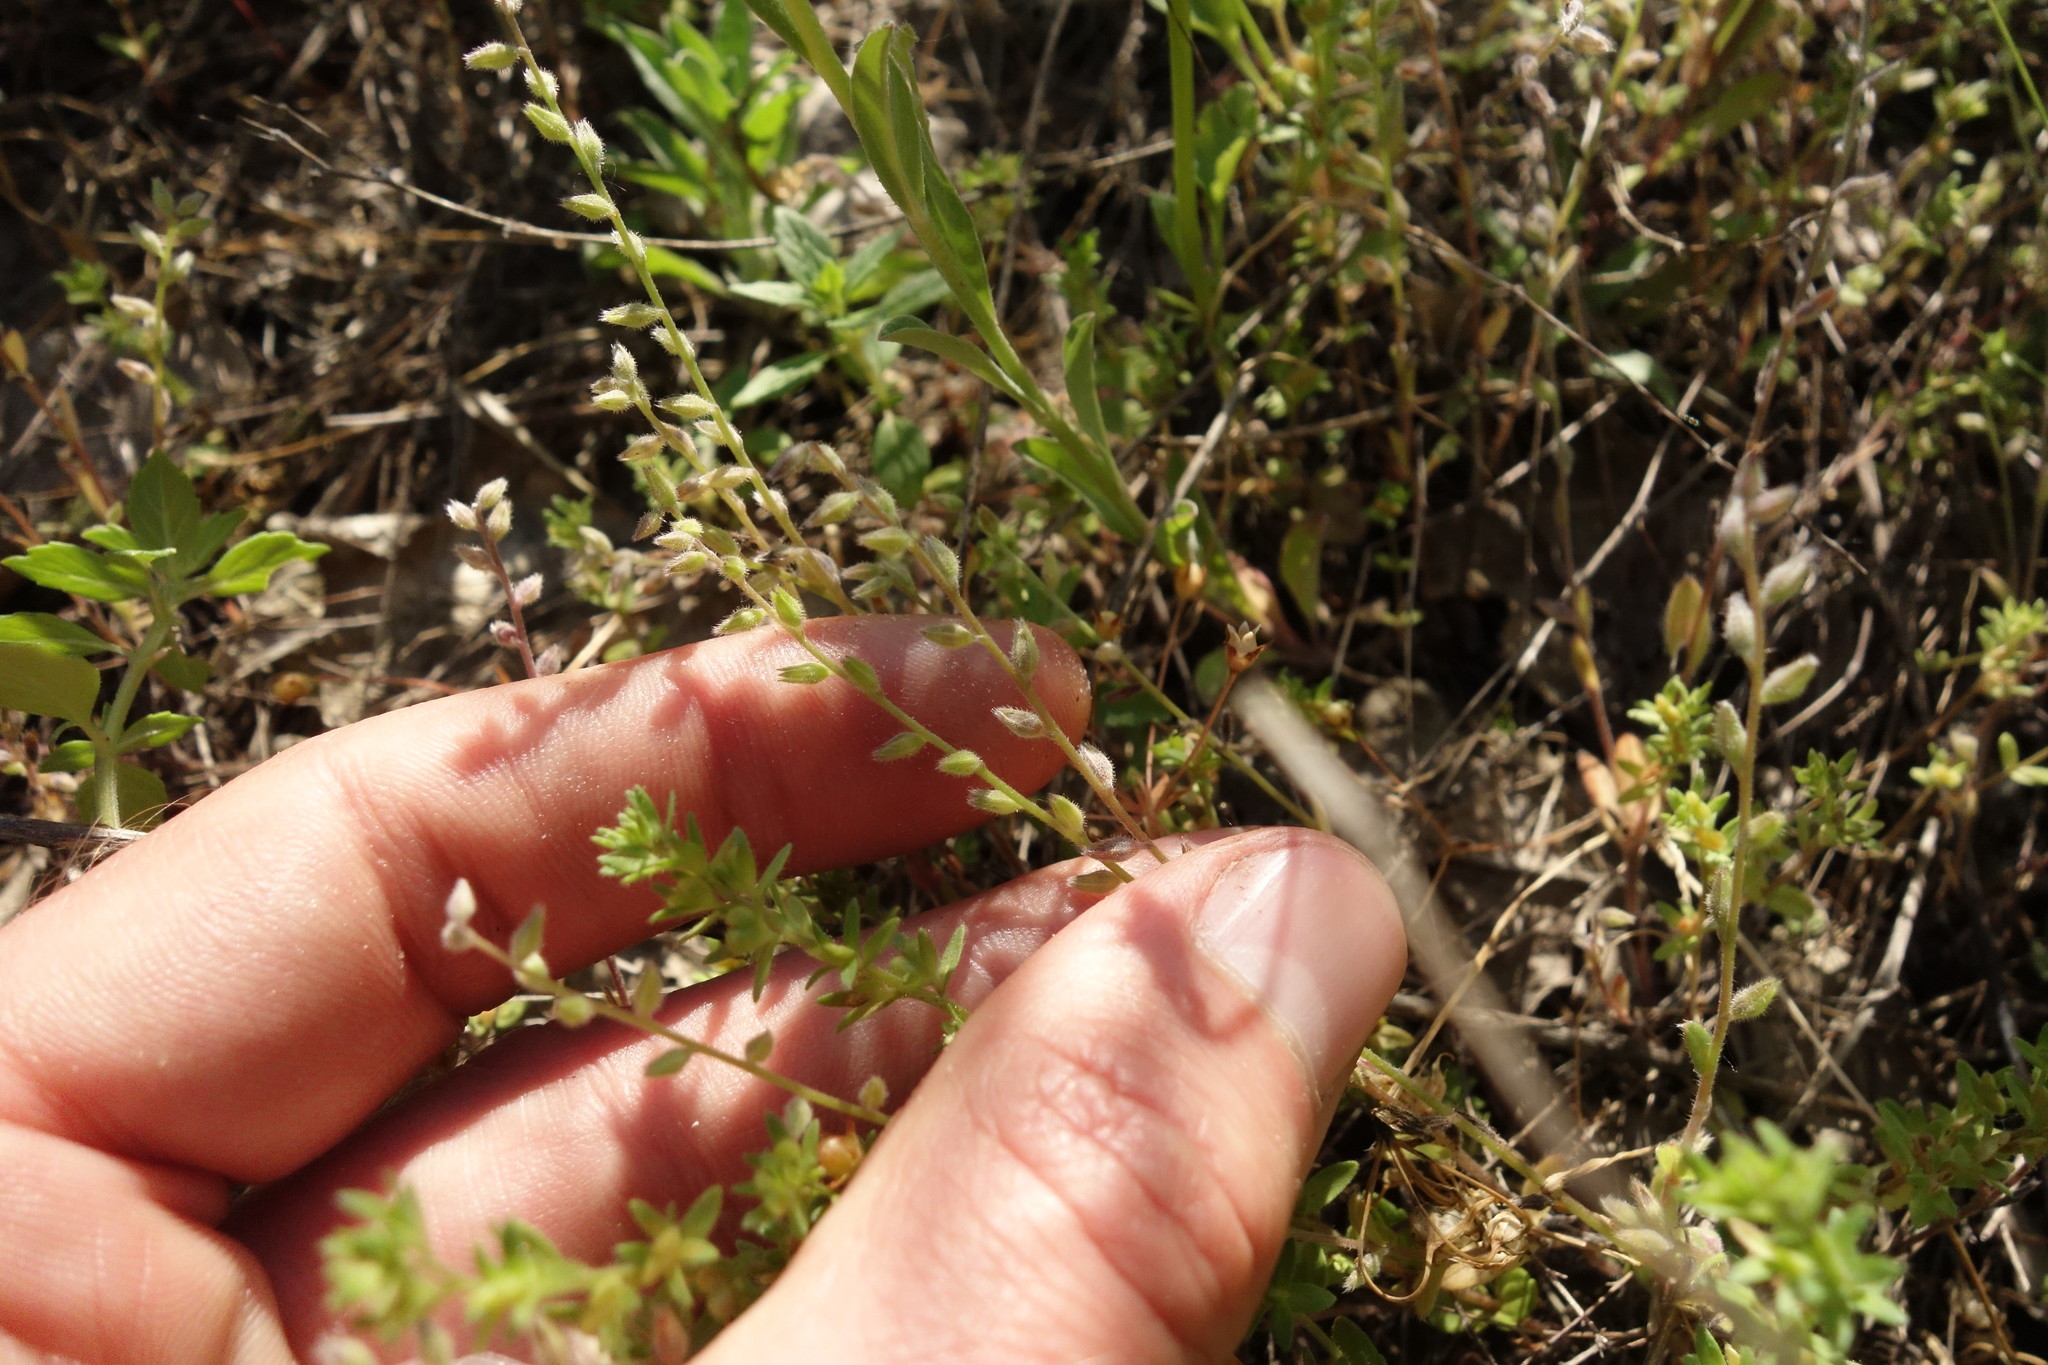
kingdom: Plantae
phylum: Tracheophyta
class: Magnoliopsida
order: Boraginales
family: Boraginaceae
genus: Myosotis
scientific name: Myosotis stricta
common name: Strict forget-me-not
